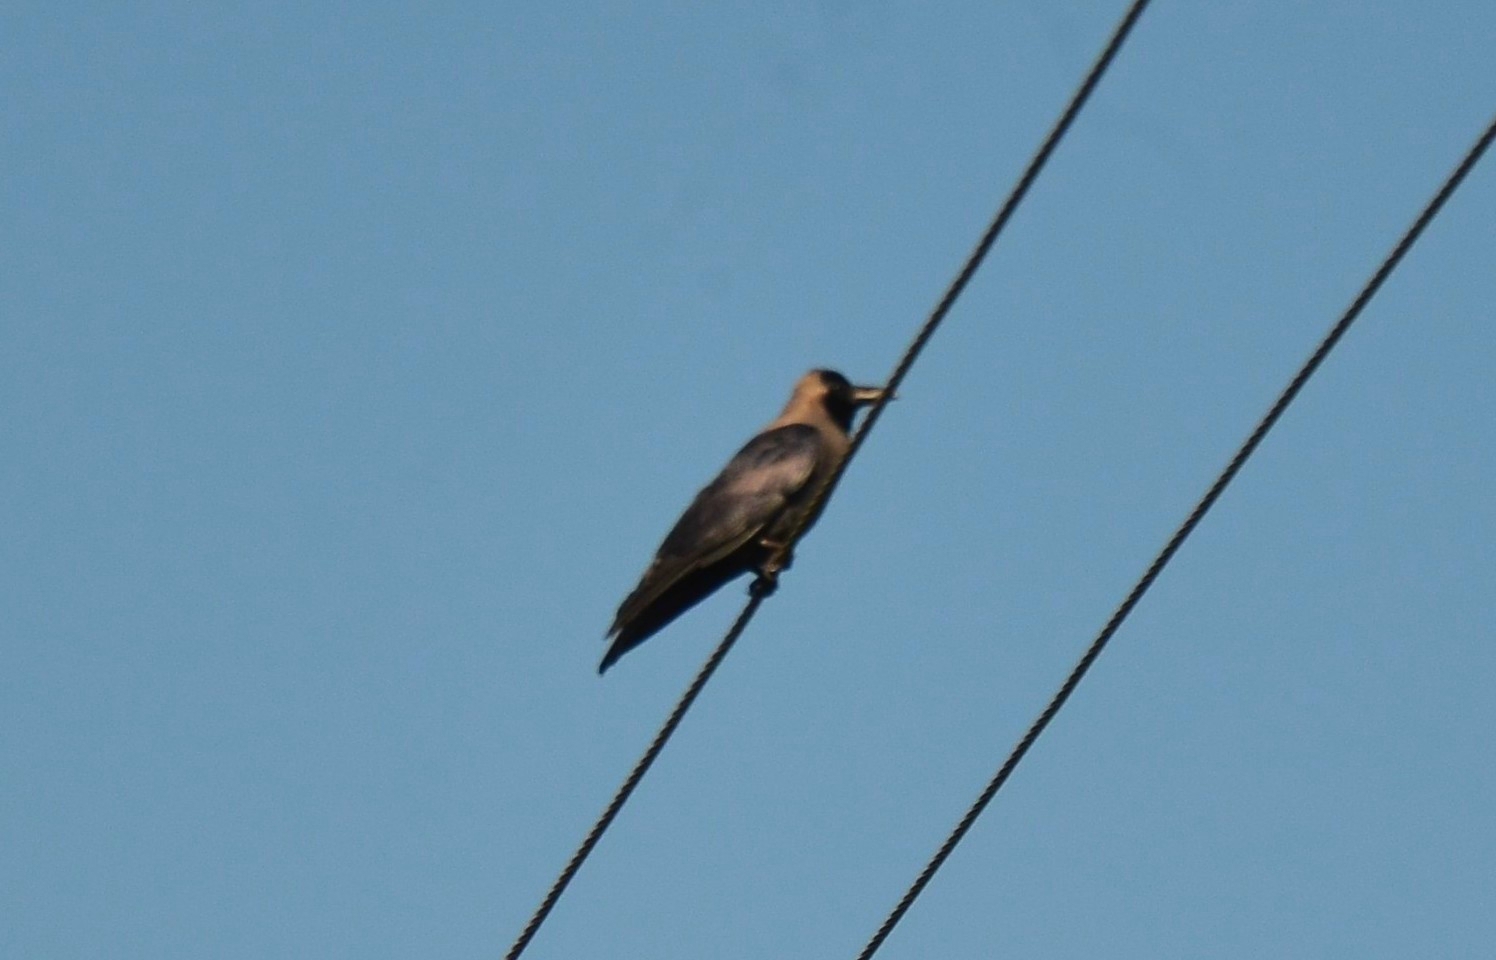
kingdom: Animalia
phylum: Chordata
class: Aves
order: Passeriformes
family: Corvidae
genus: Corvus
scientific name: Corvus splendens
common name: House crow
